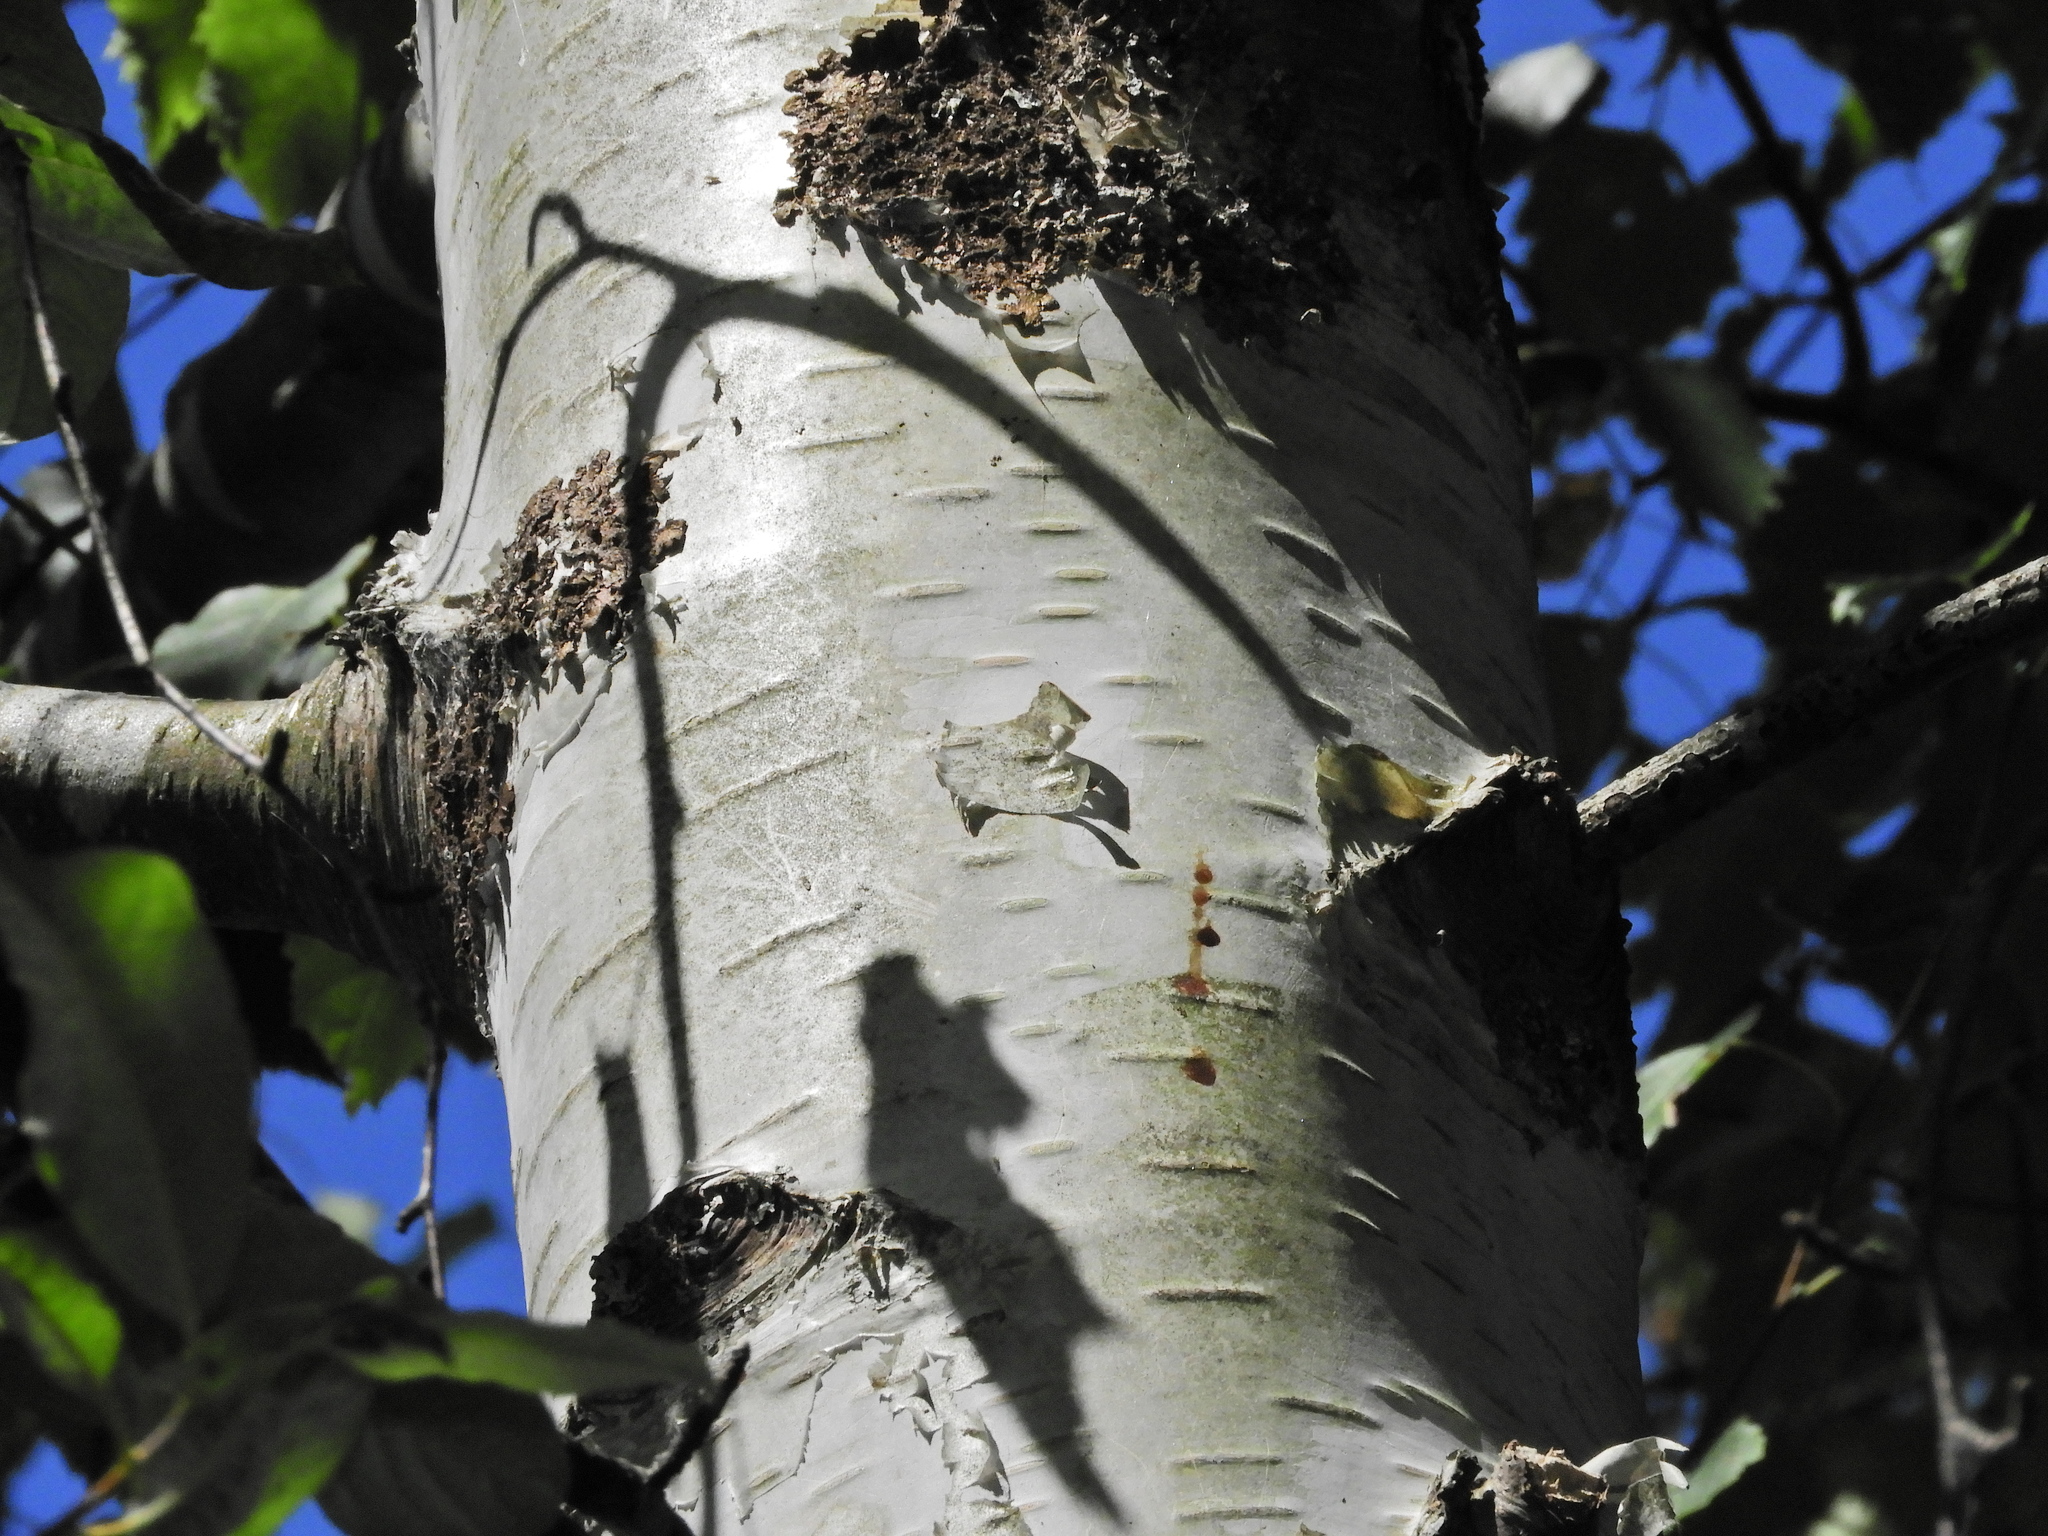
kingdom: Plantae
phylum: Tracheophyta
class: Magnoliopsida
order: Fagales
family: Betulaceae
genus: Betula
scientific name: Betula pendula
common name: Silver birch
